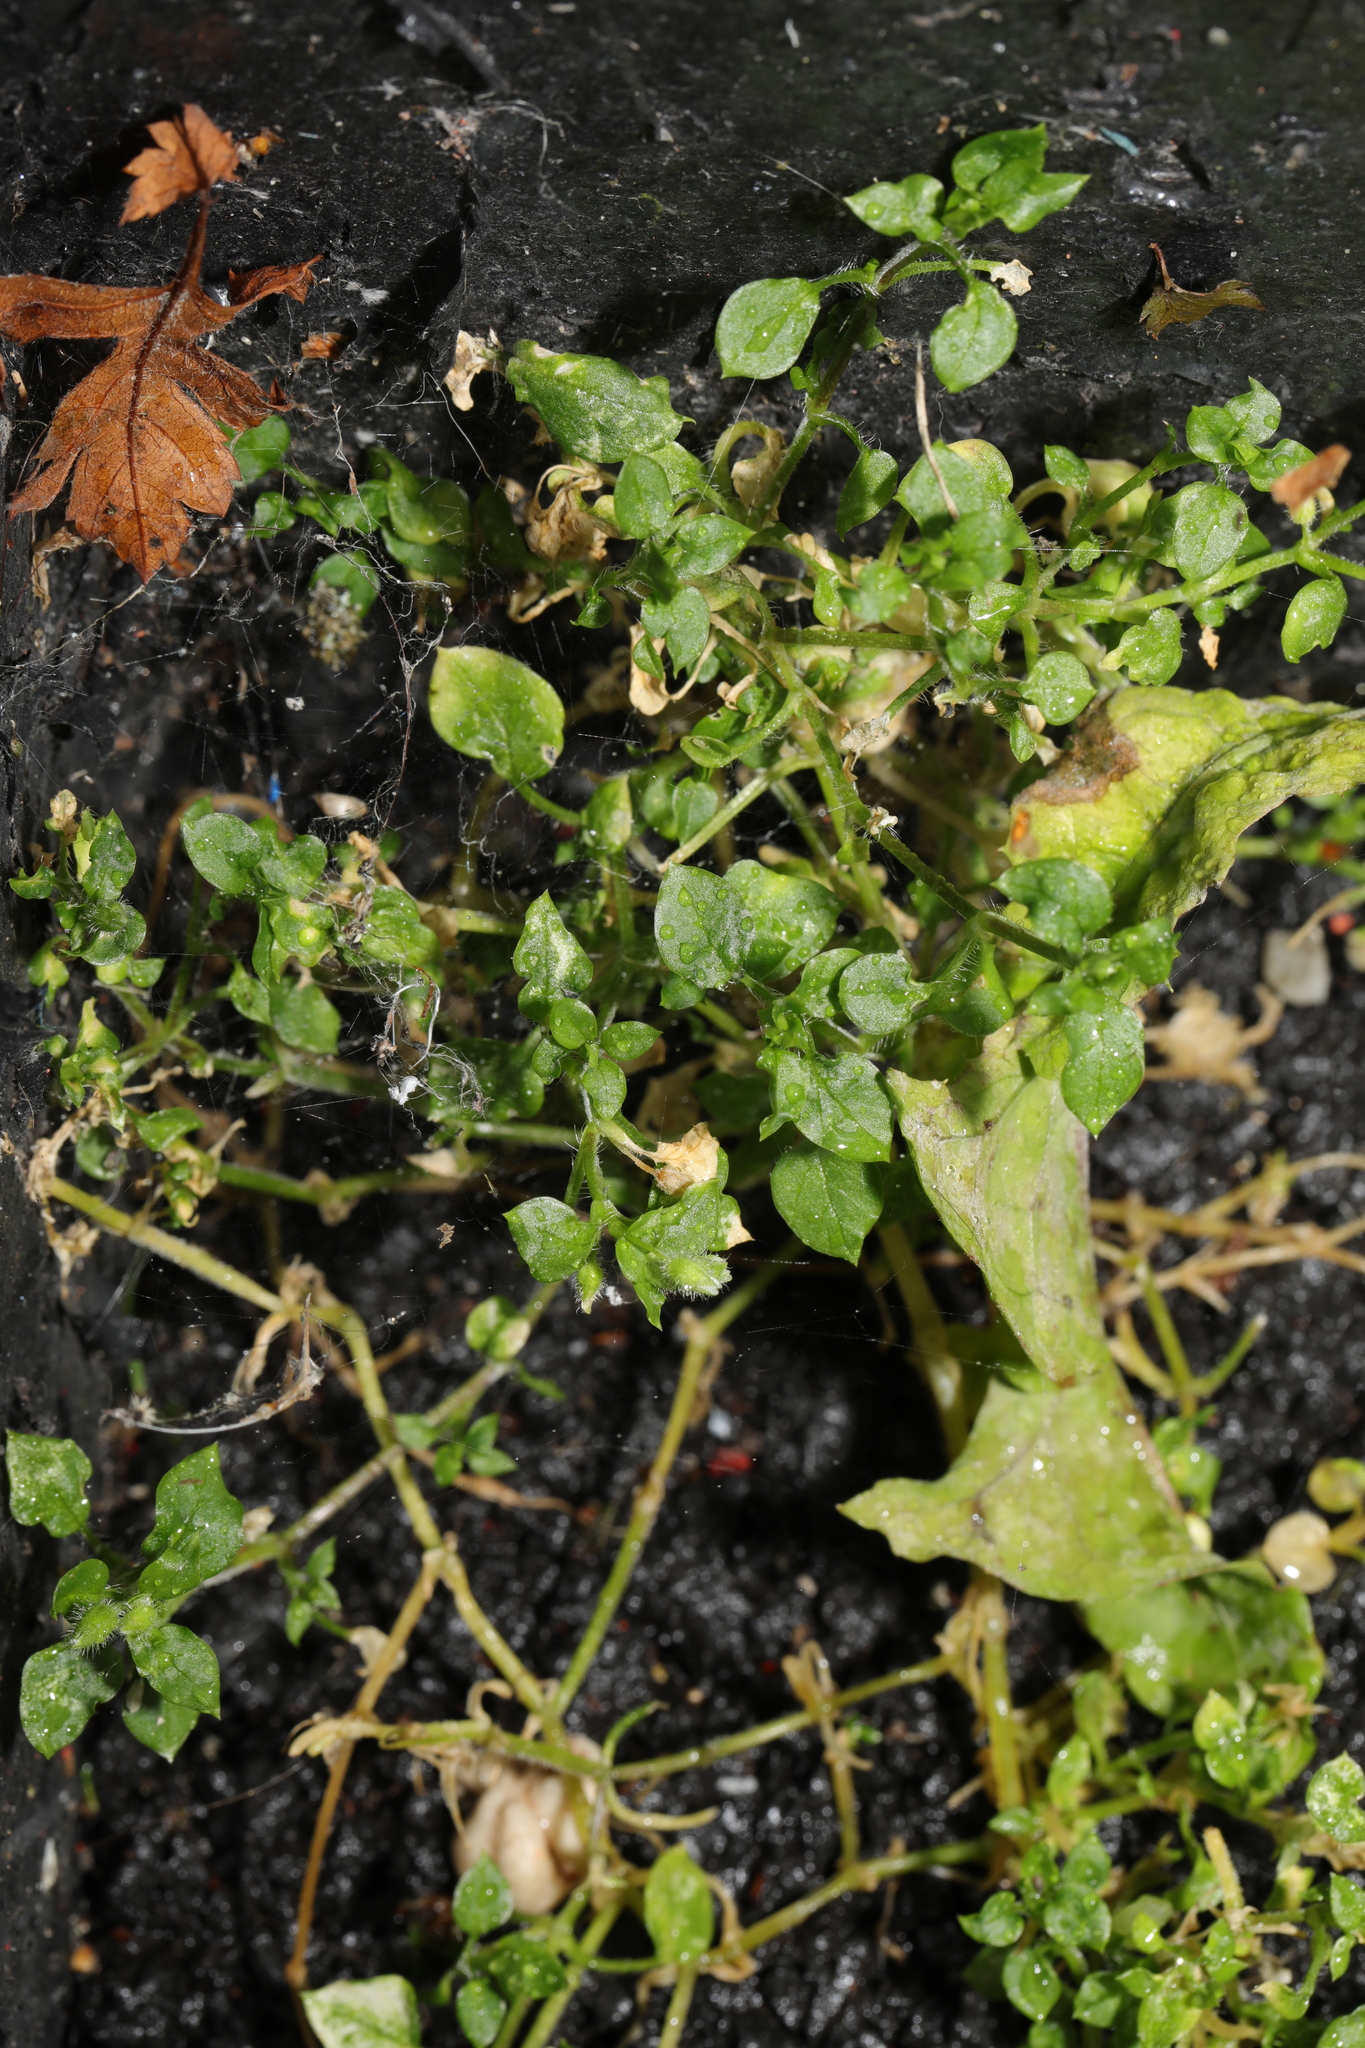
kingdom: Plantae
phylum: Tracheophyta
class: Magnoliopsida
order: Caryophyllales
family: Caryophyllaceae
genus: Stellaria
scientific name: Stellaria media
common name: Common chickweed
